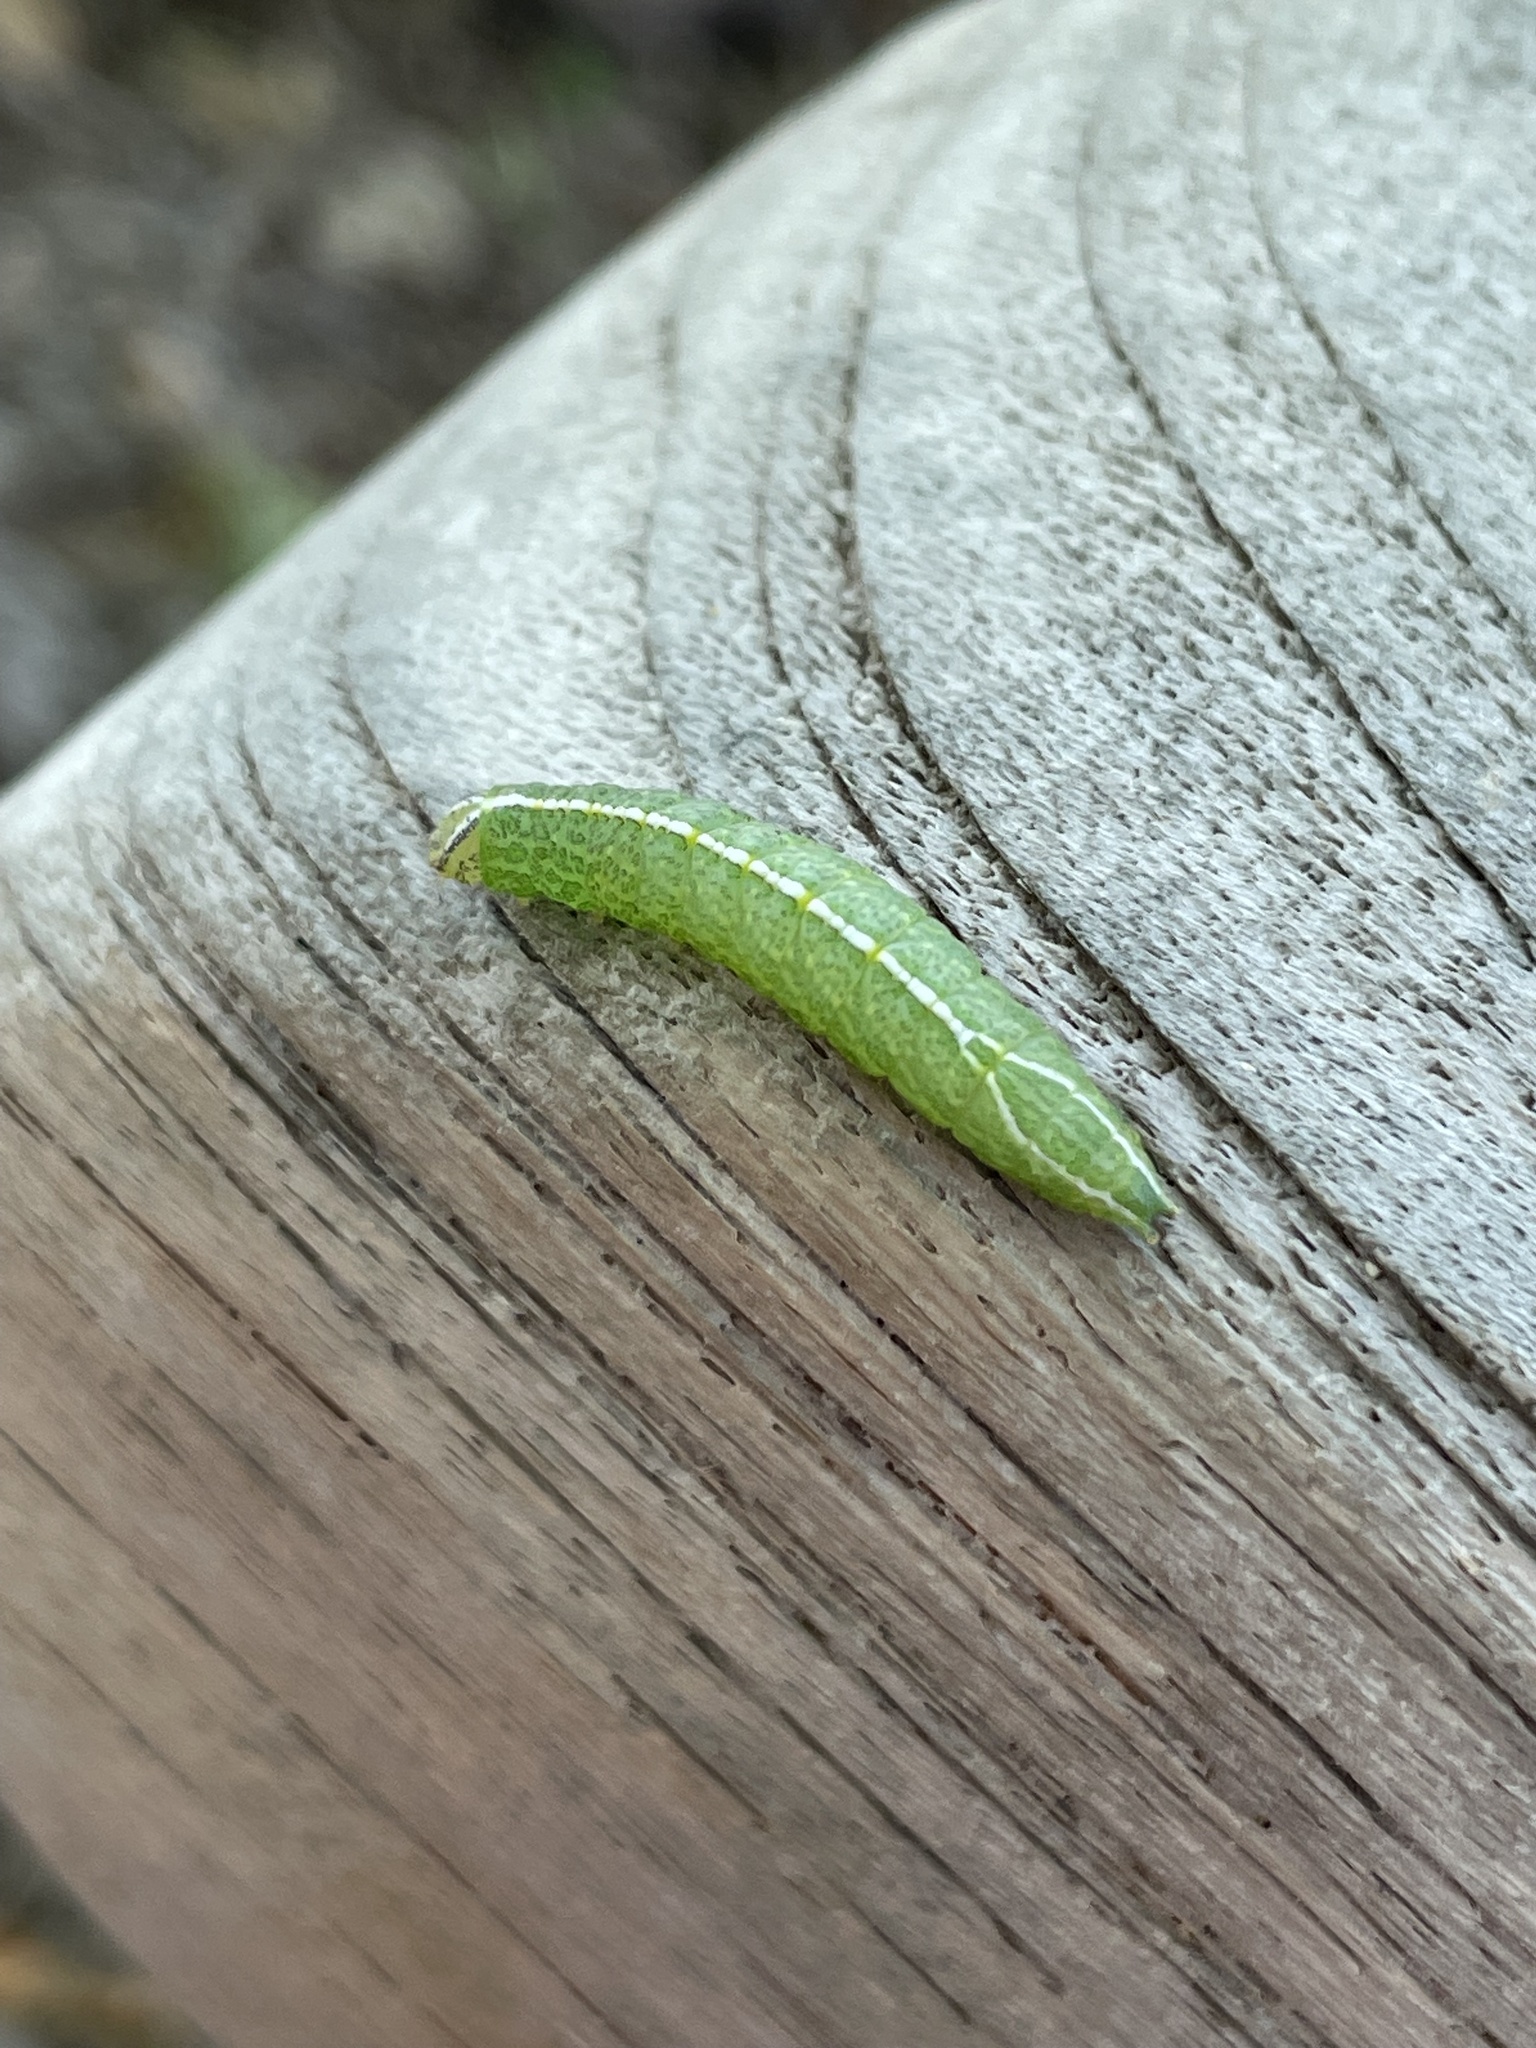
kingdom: Animalia
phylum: Arthropoda
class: Insecta
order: Lepidoptera
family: Notodontidae
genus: Rifargia
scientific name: Rifargia
